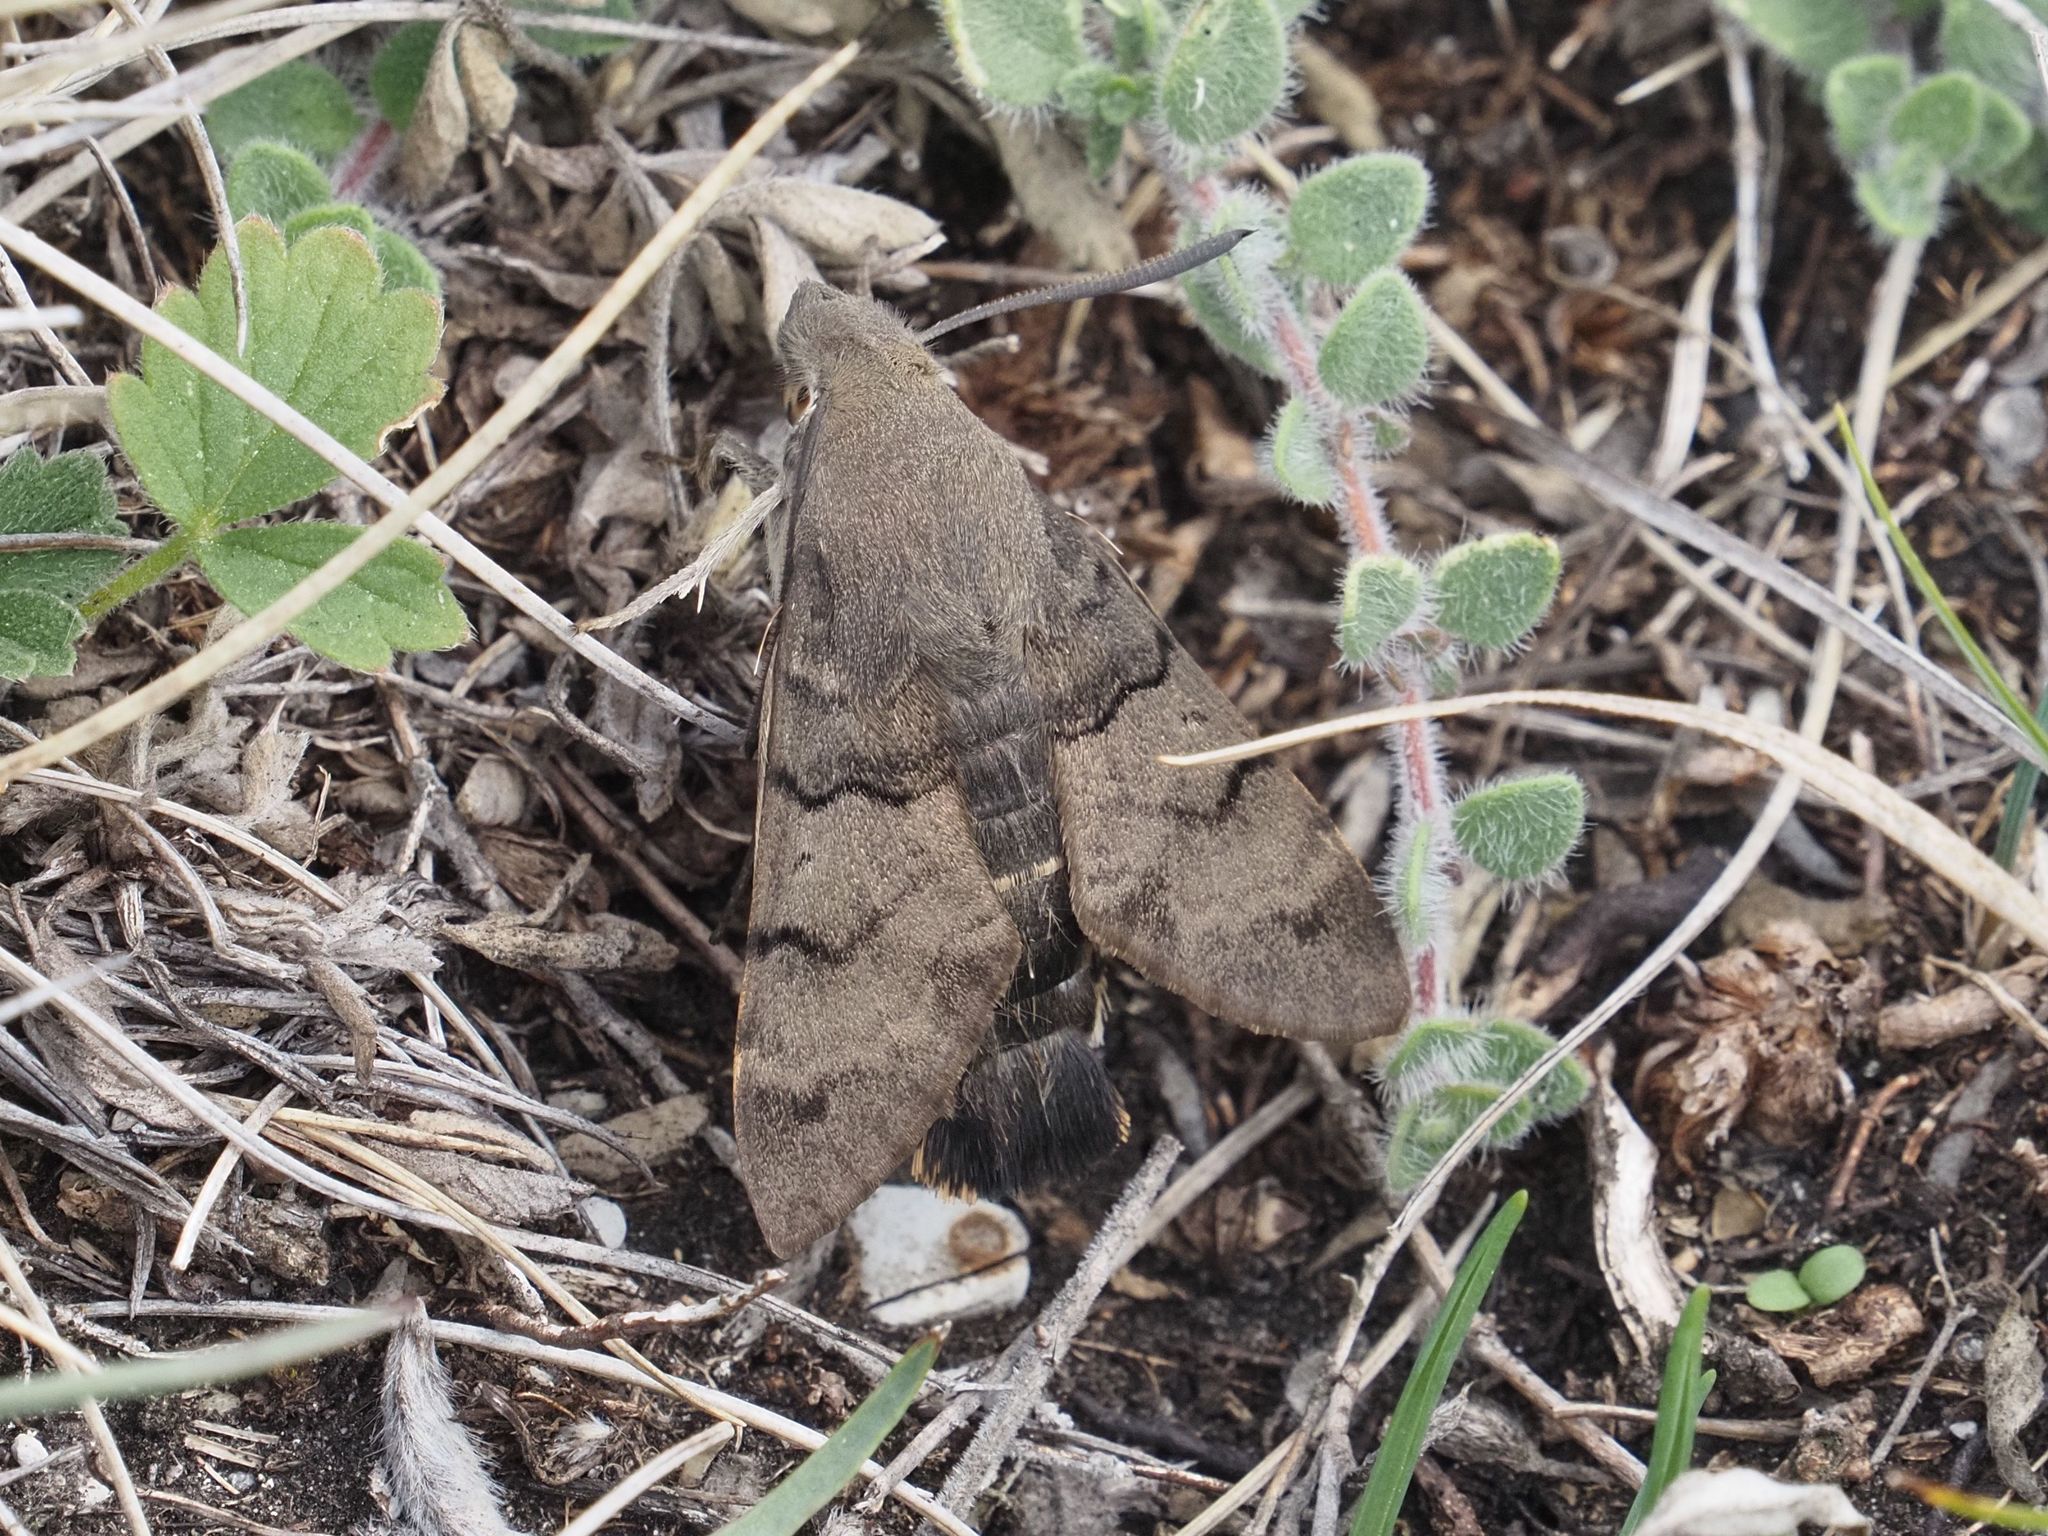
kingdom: Animalia
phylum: Arthropoda
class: Insecta
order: Lepidoptera
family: Sphingidae
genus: Macroglossum
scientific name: Macroglossum stellatarum
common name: Humming-bird hawk-moth
